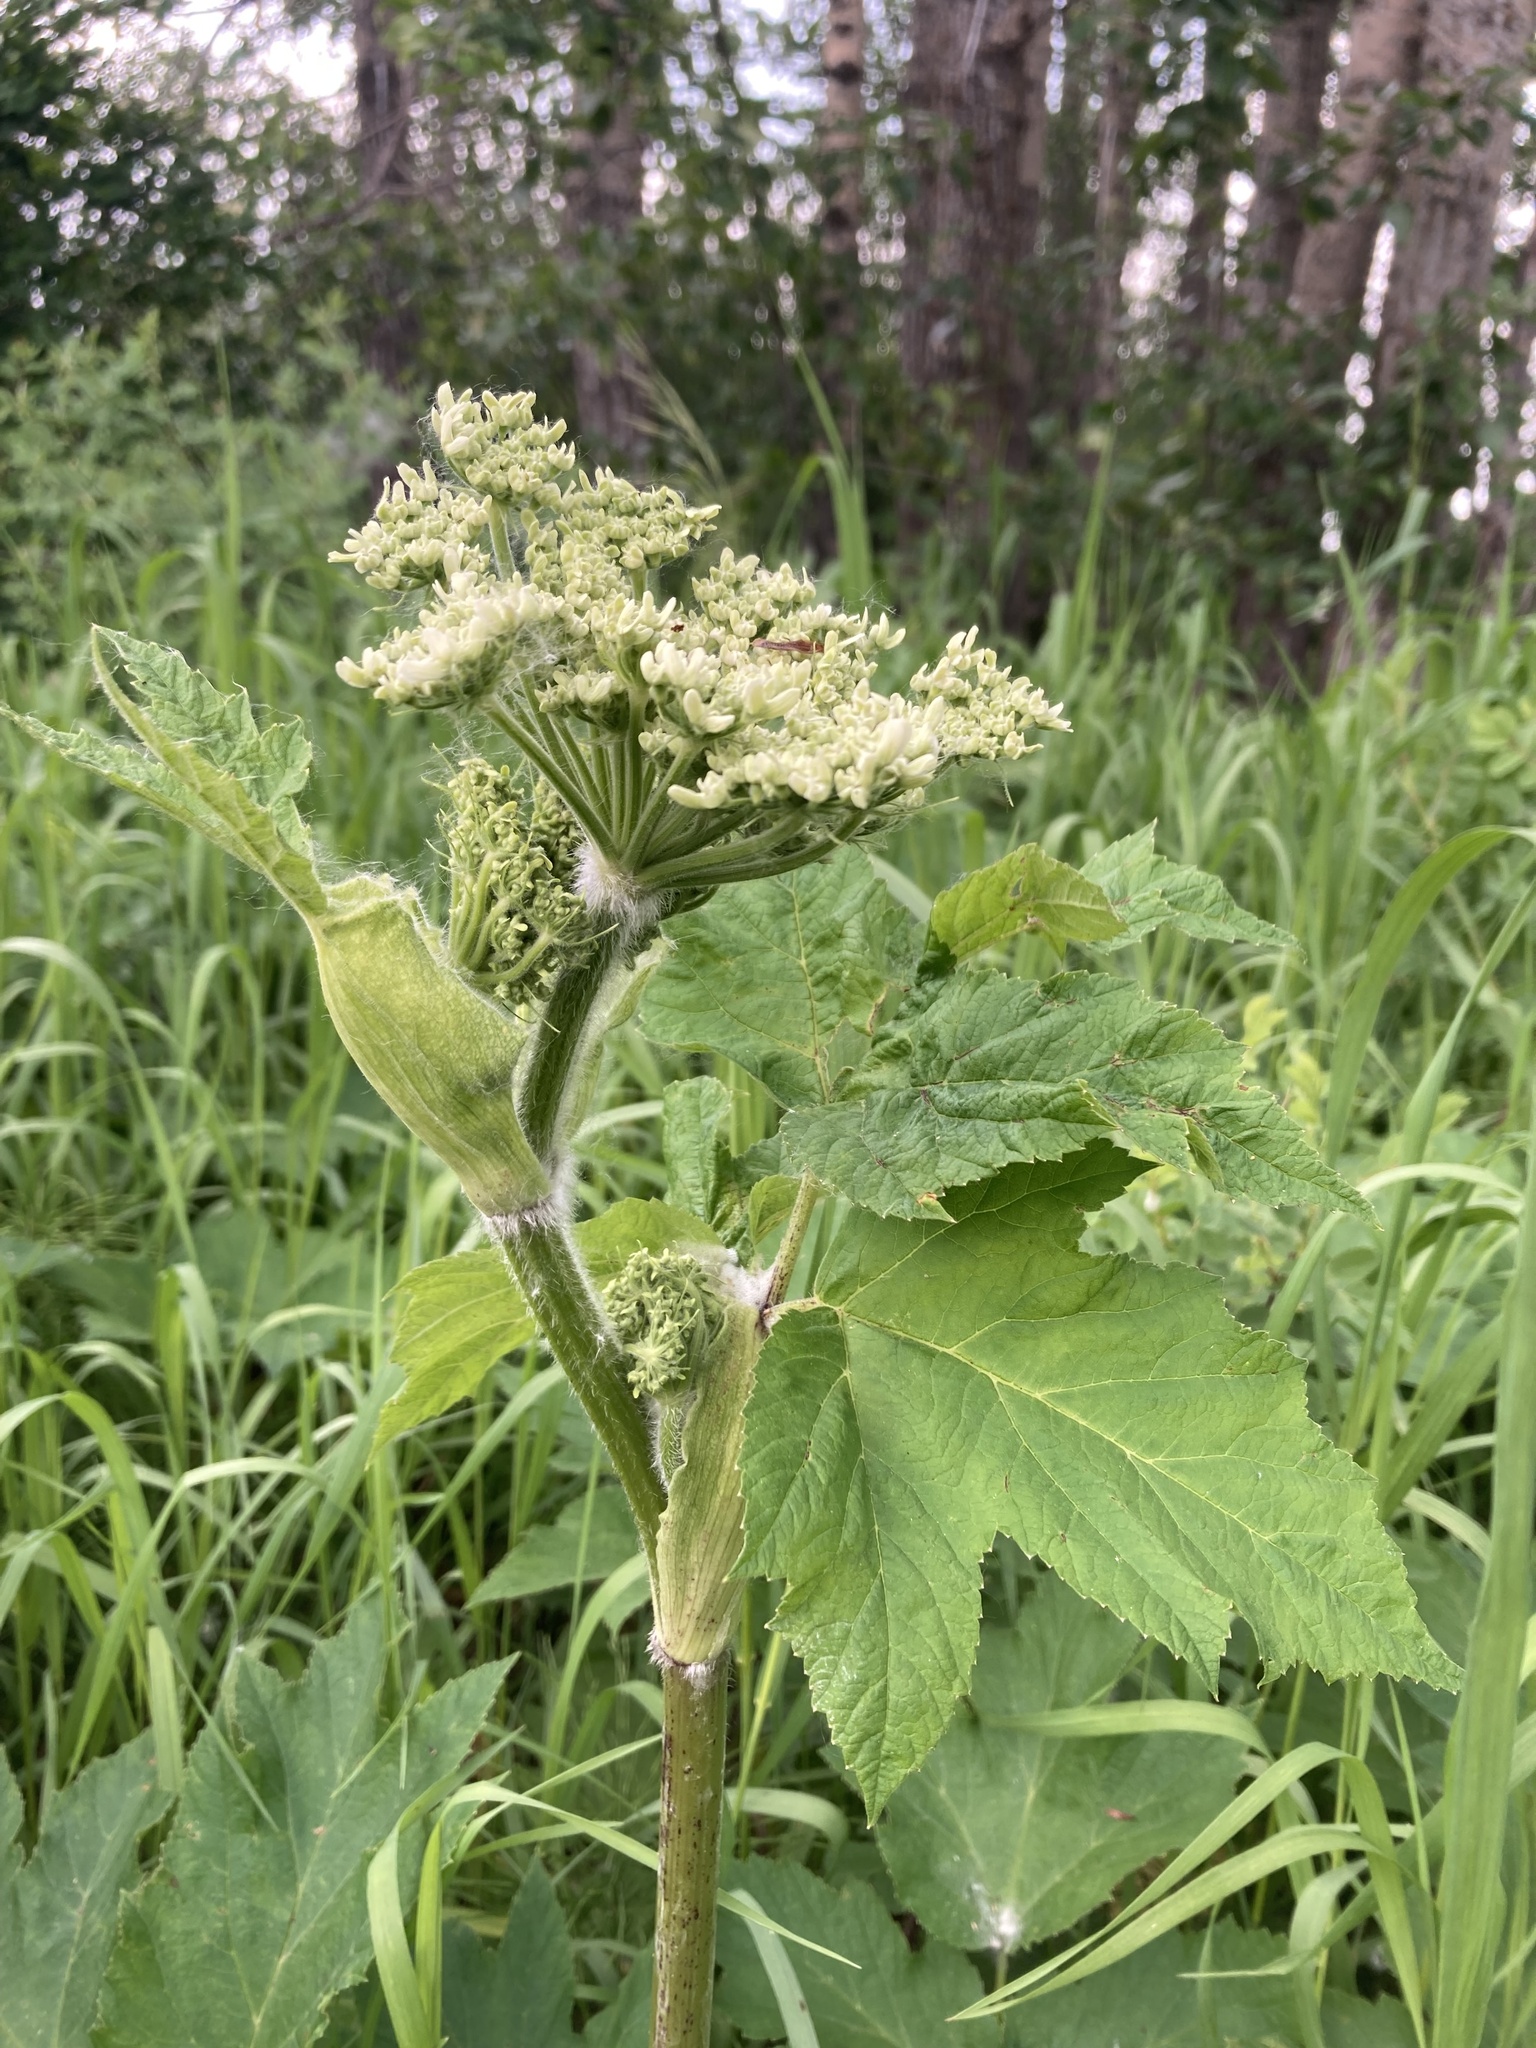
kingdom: Plantae
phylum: Tracheophyta
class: Magnoliopsida
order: Apiales
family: Apiaceae
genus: Heracleum
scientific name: Heracleum maximum
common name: American cow parsnip
